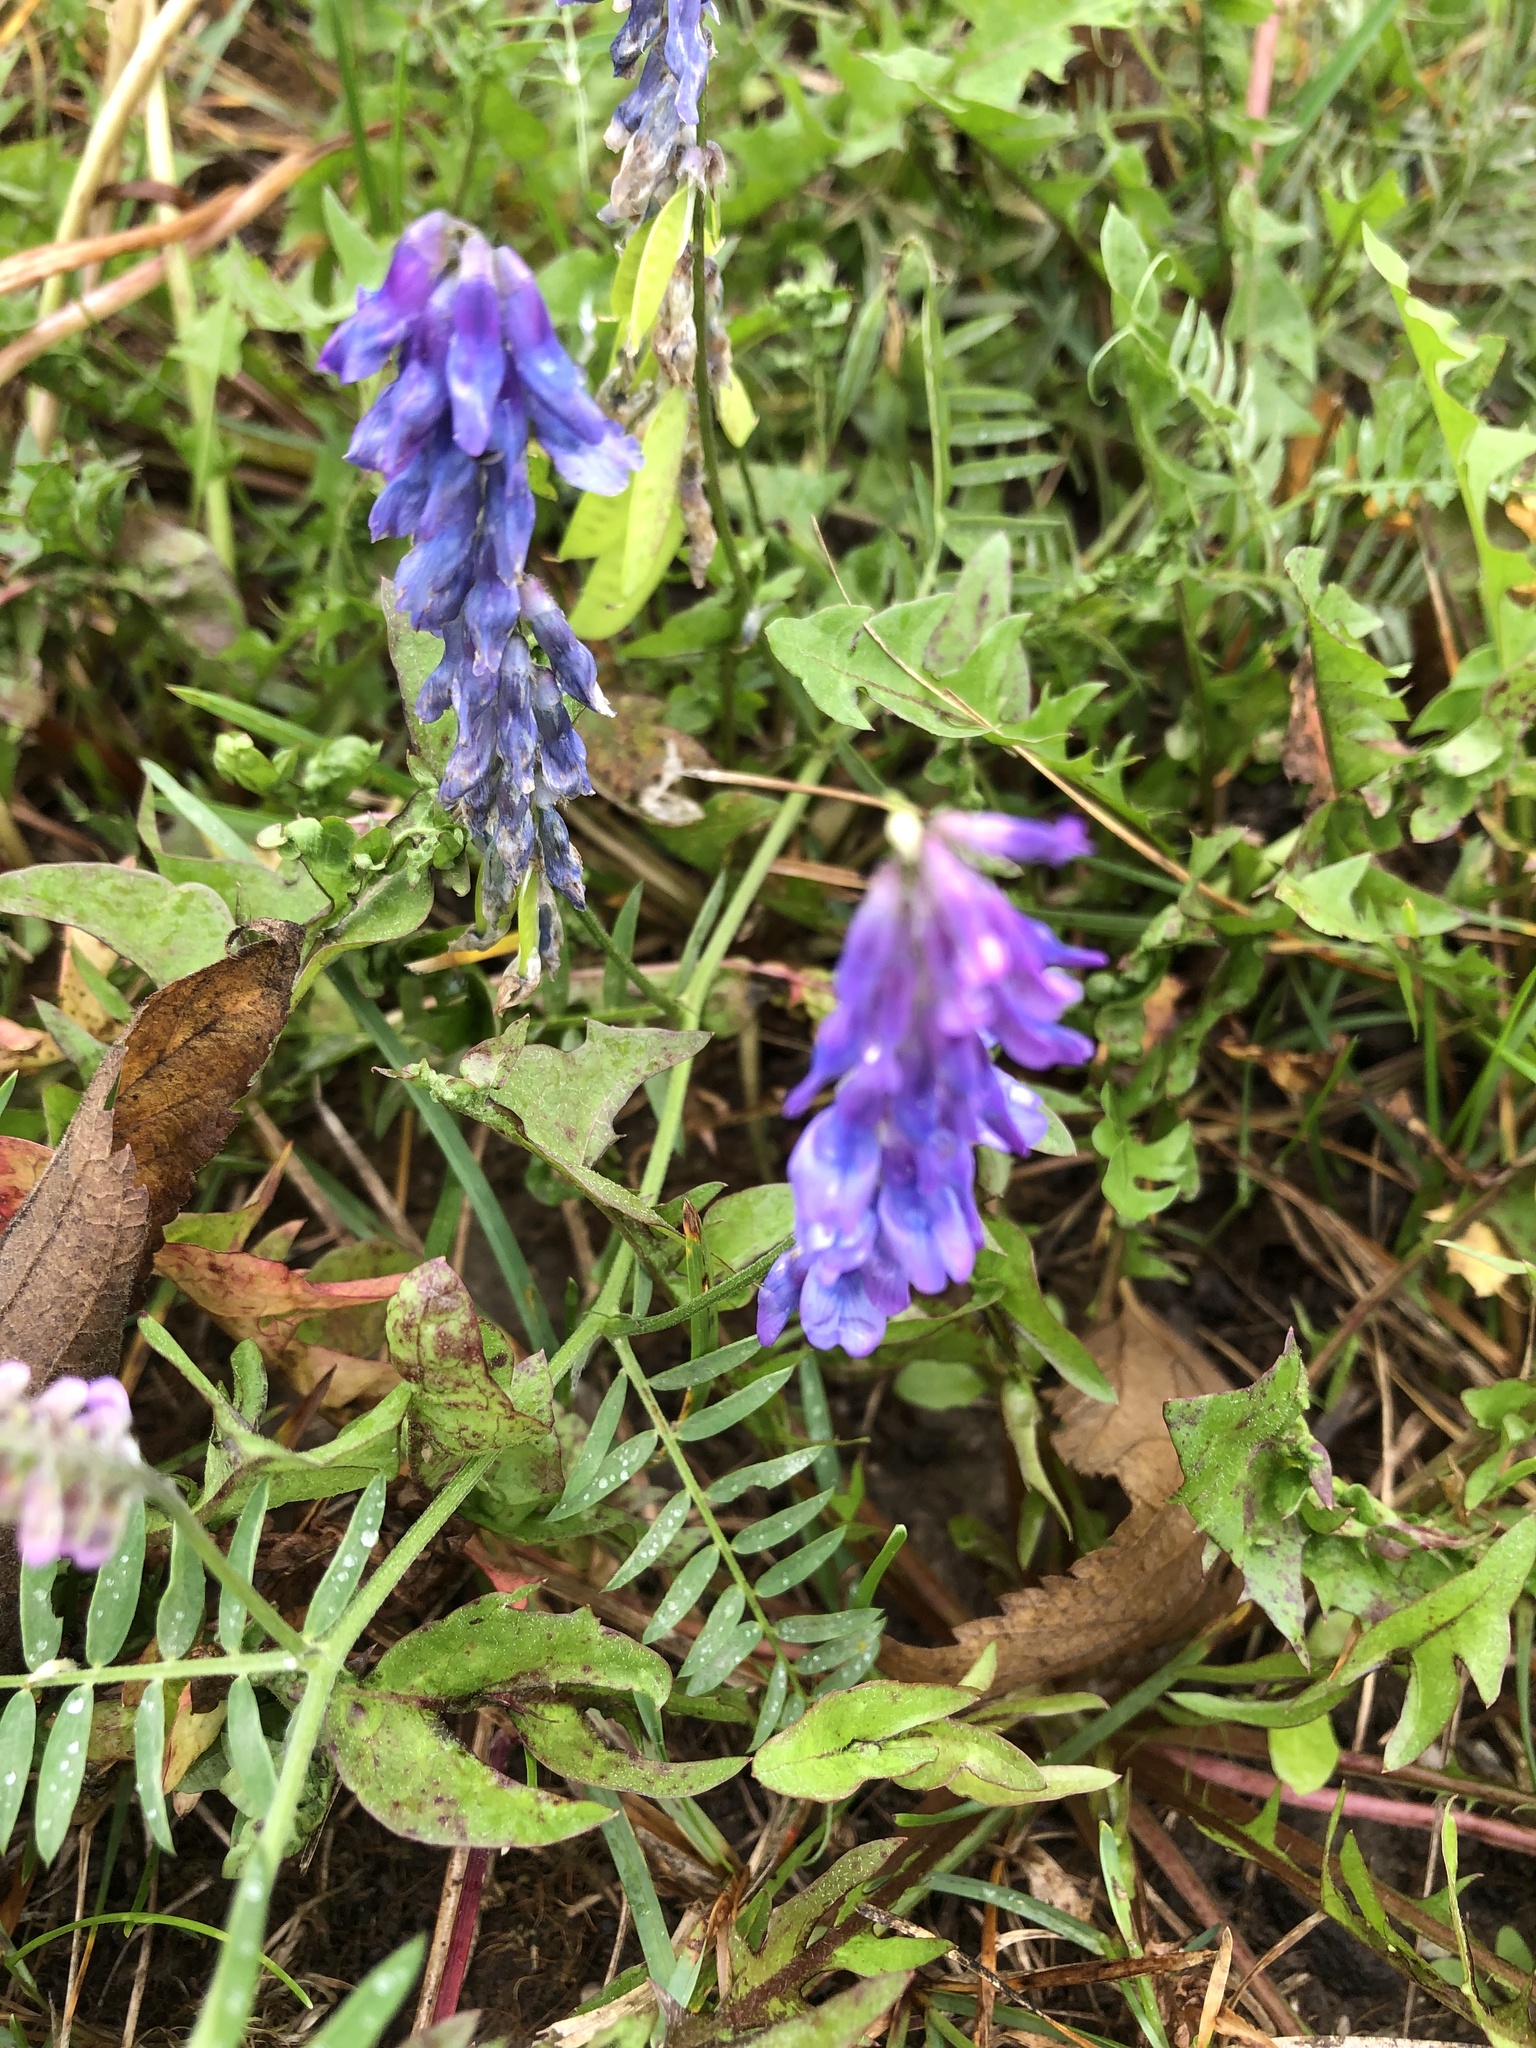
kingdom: Plantae
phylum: Tracheophyta
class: Magnoliopsida
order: Fabales
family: Fabaceae
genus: Vicia
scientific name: Vicia cracca
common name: Bird vetch
